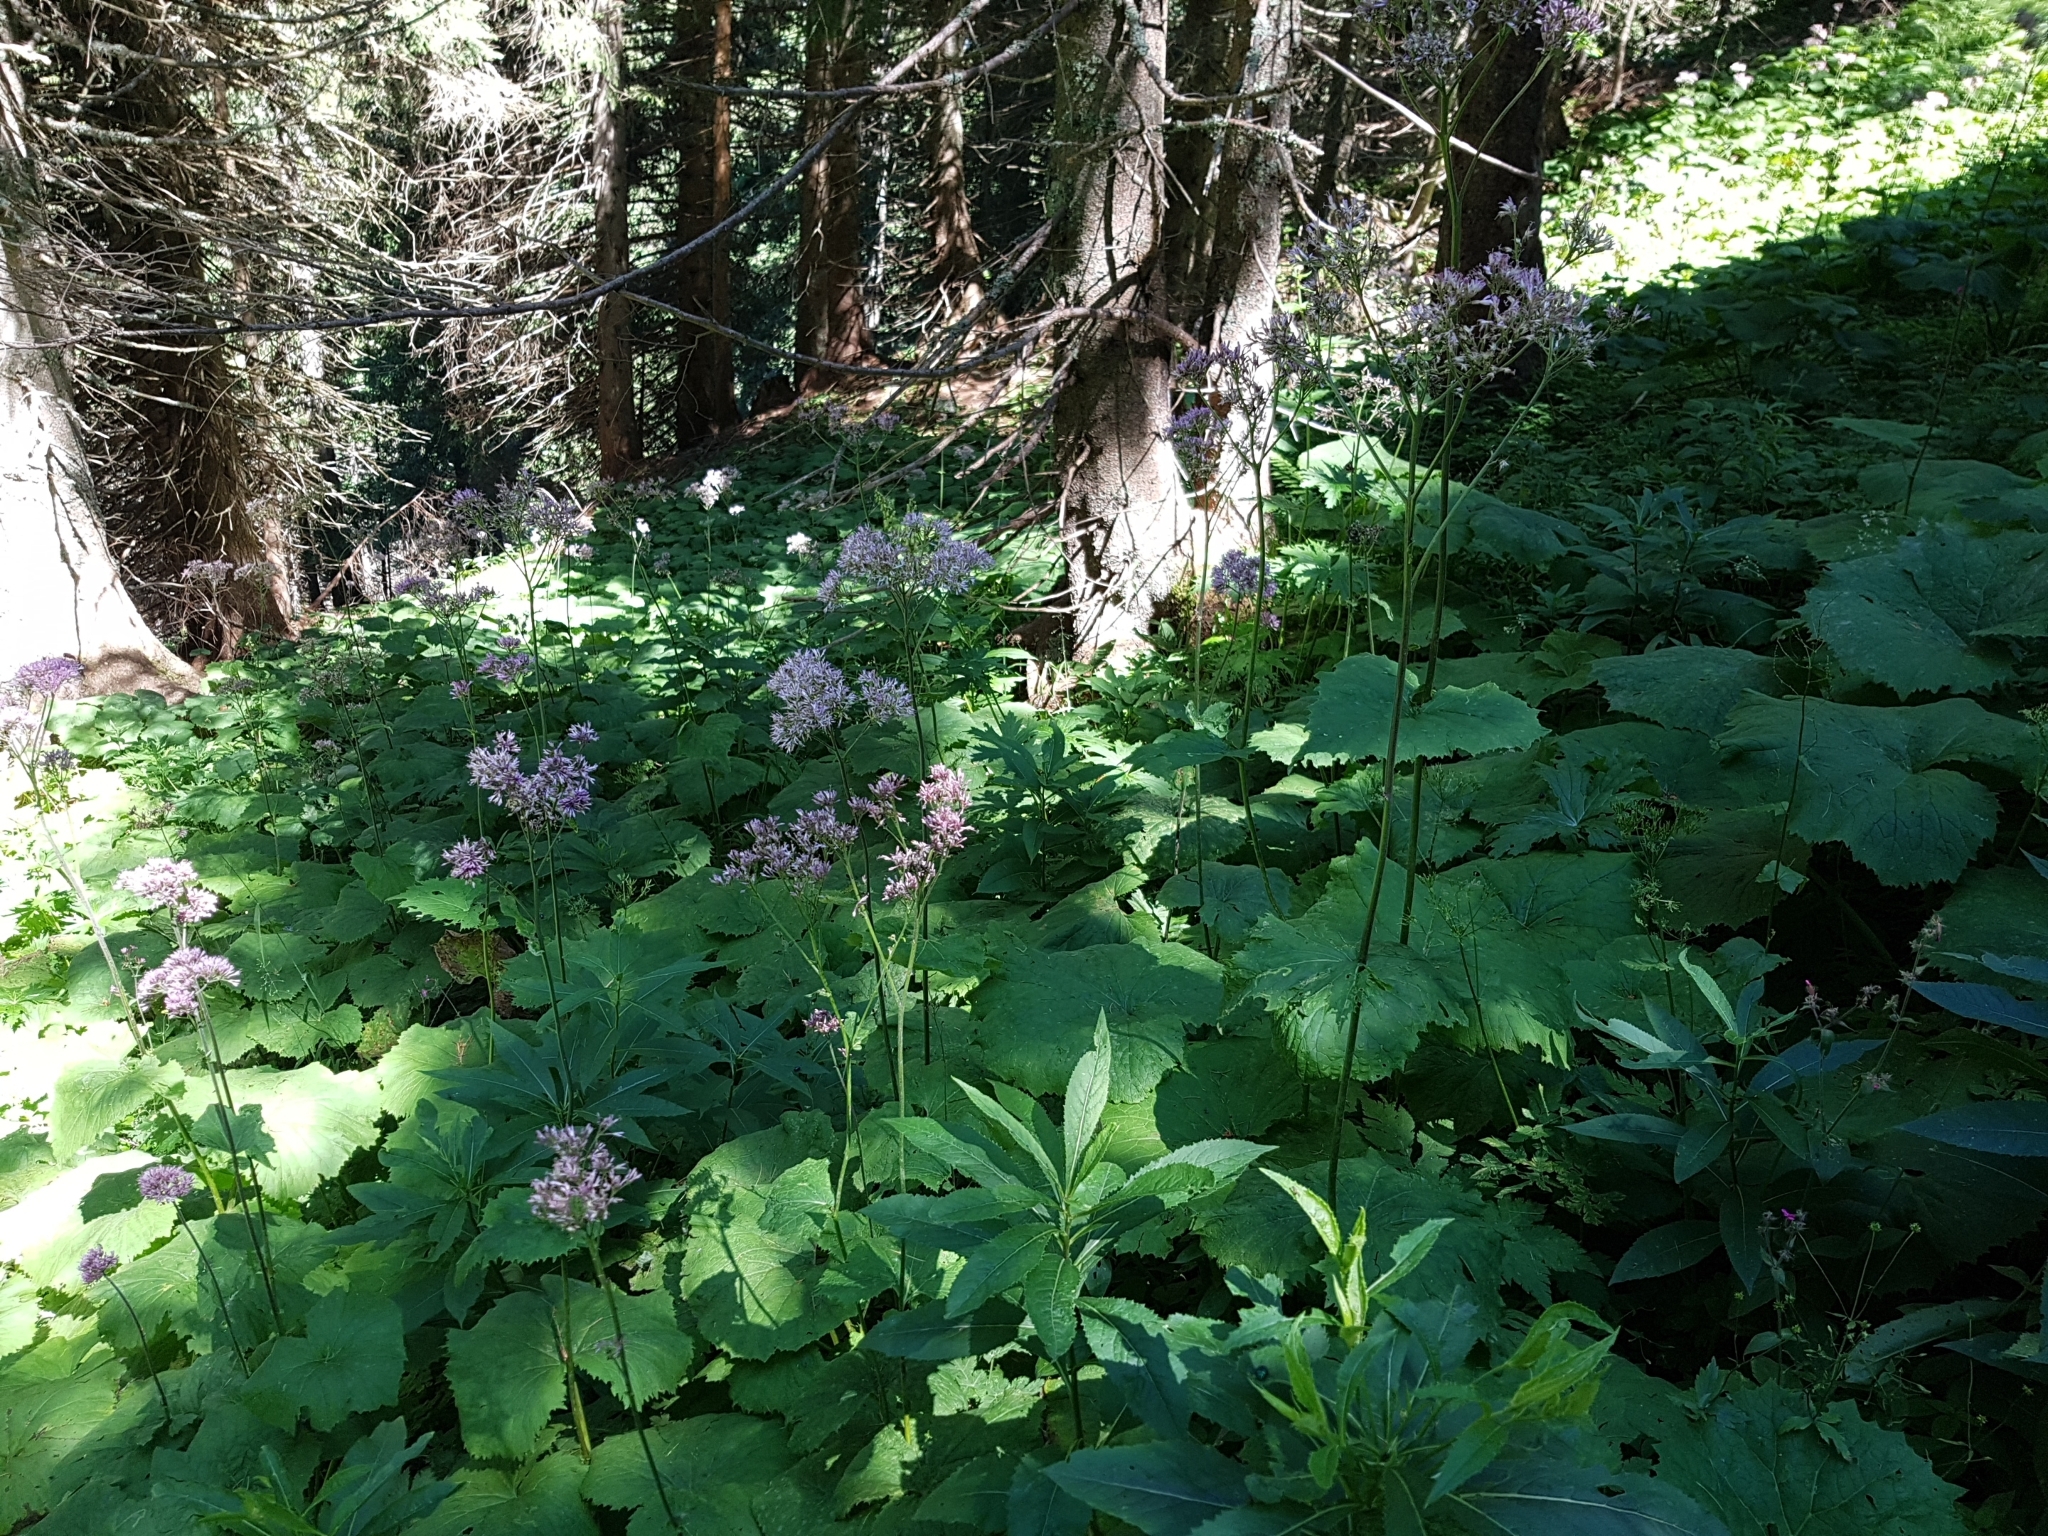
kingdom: Plantae
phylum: Tracheophyta
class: Magnoliopsida
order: Asterales
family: Asteraceae
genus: Adenostyles
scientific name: Adenostyles alliariae
